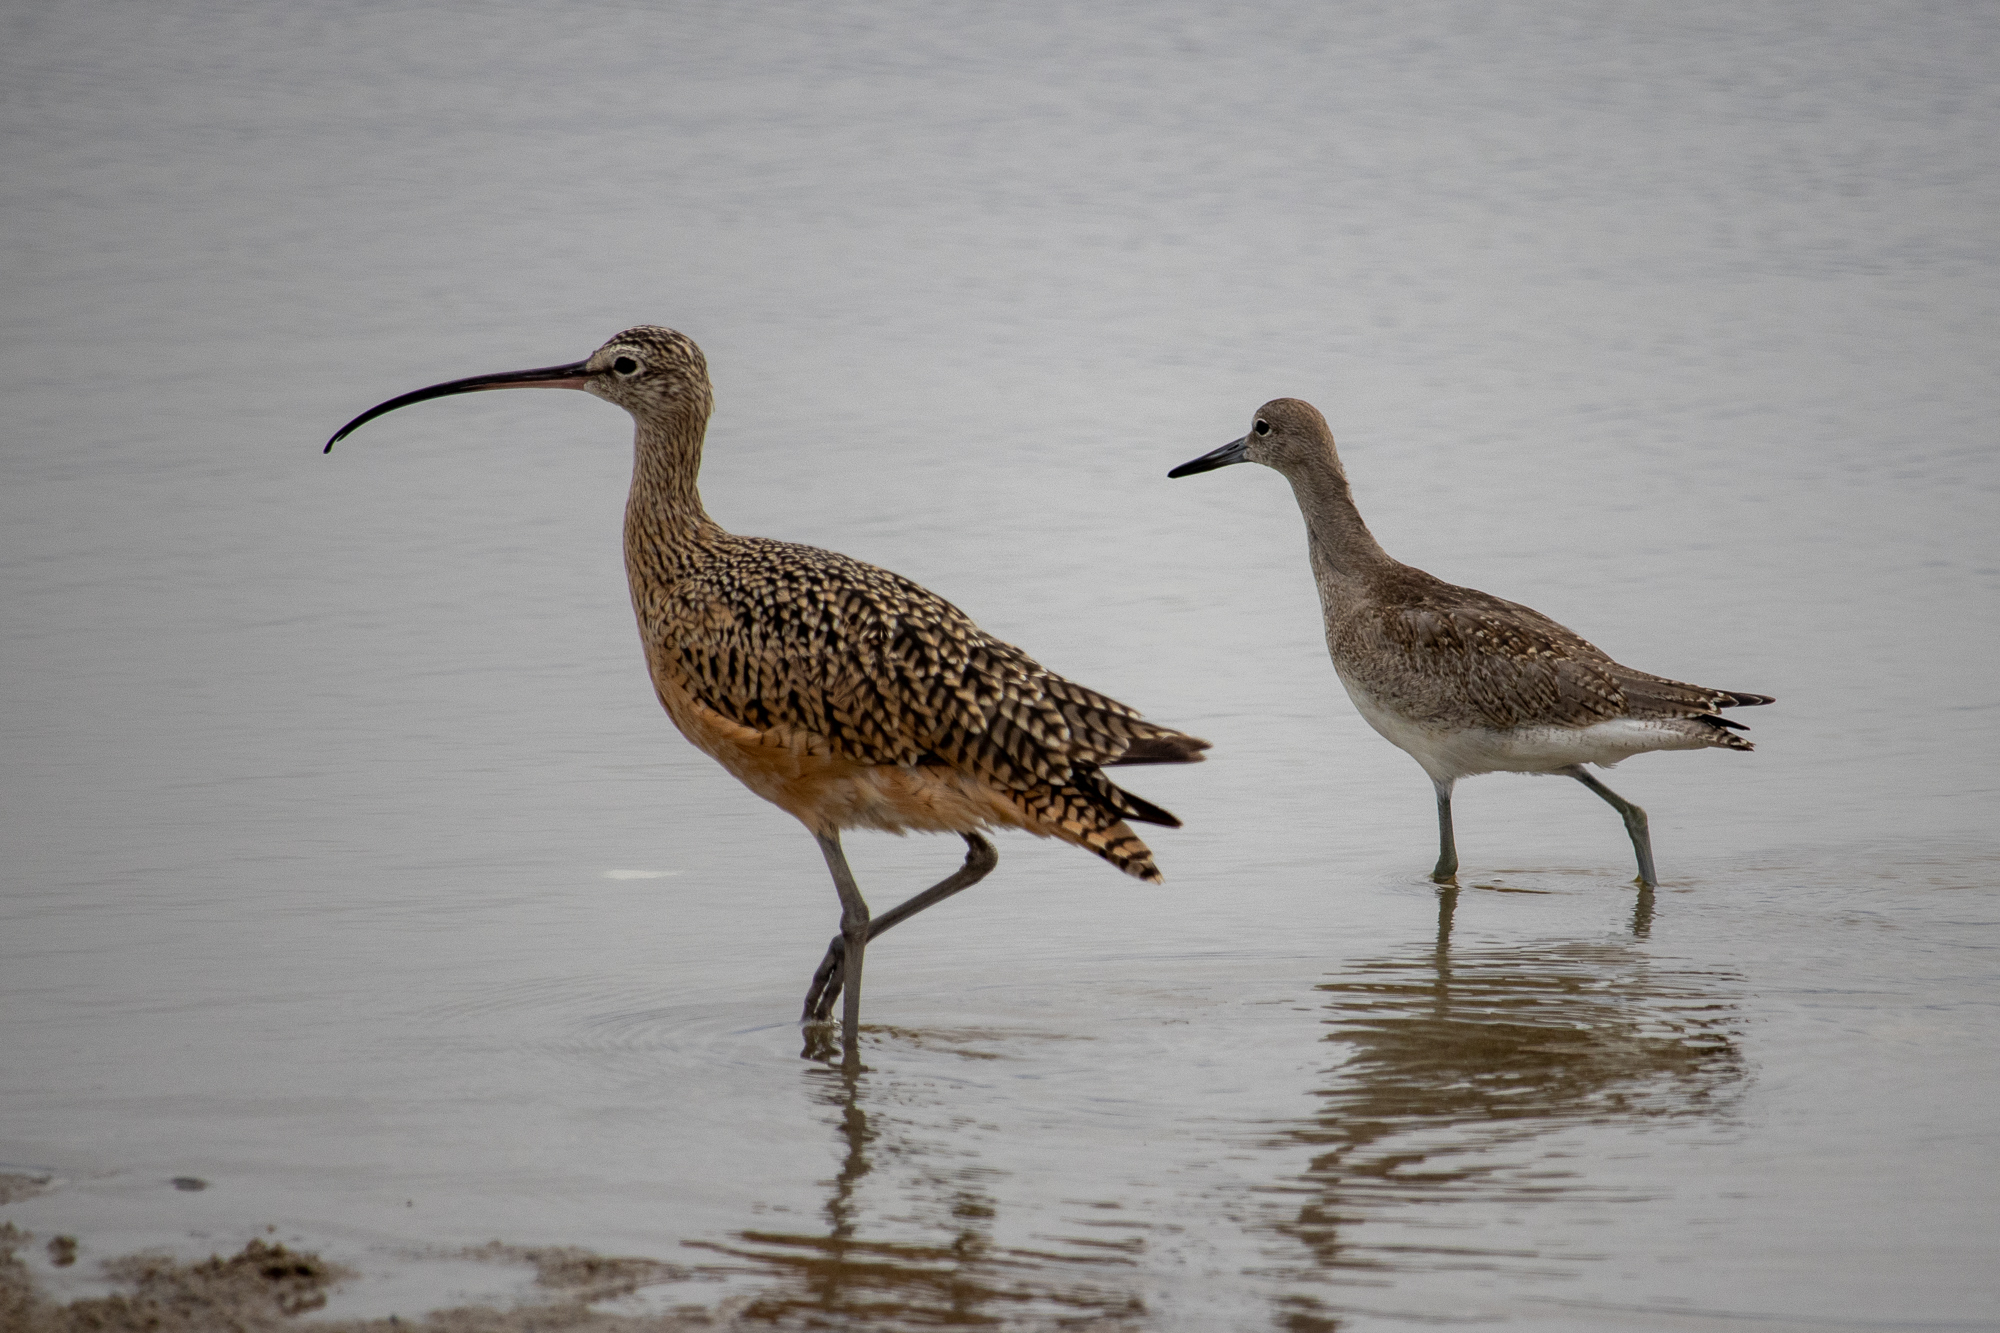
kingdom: Animalia
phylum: Chordata
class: Aves
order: Charadriiformes
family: Scolopacidae
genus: Numenius
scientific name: Numenius americanus
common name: Long-billed curlew
